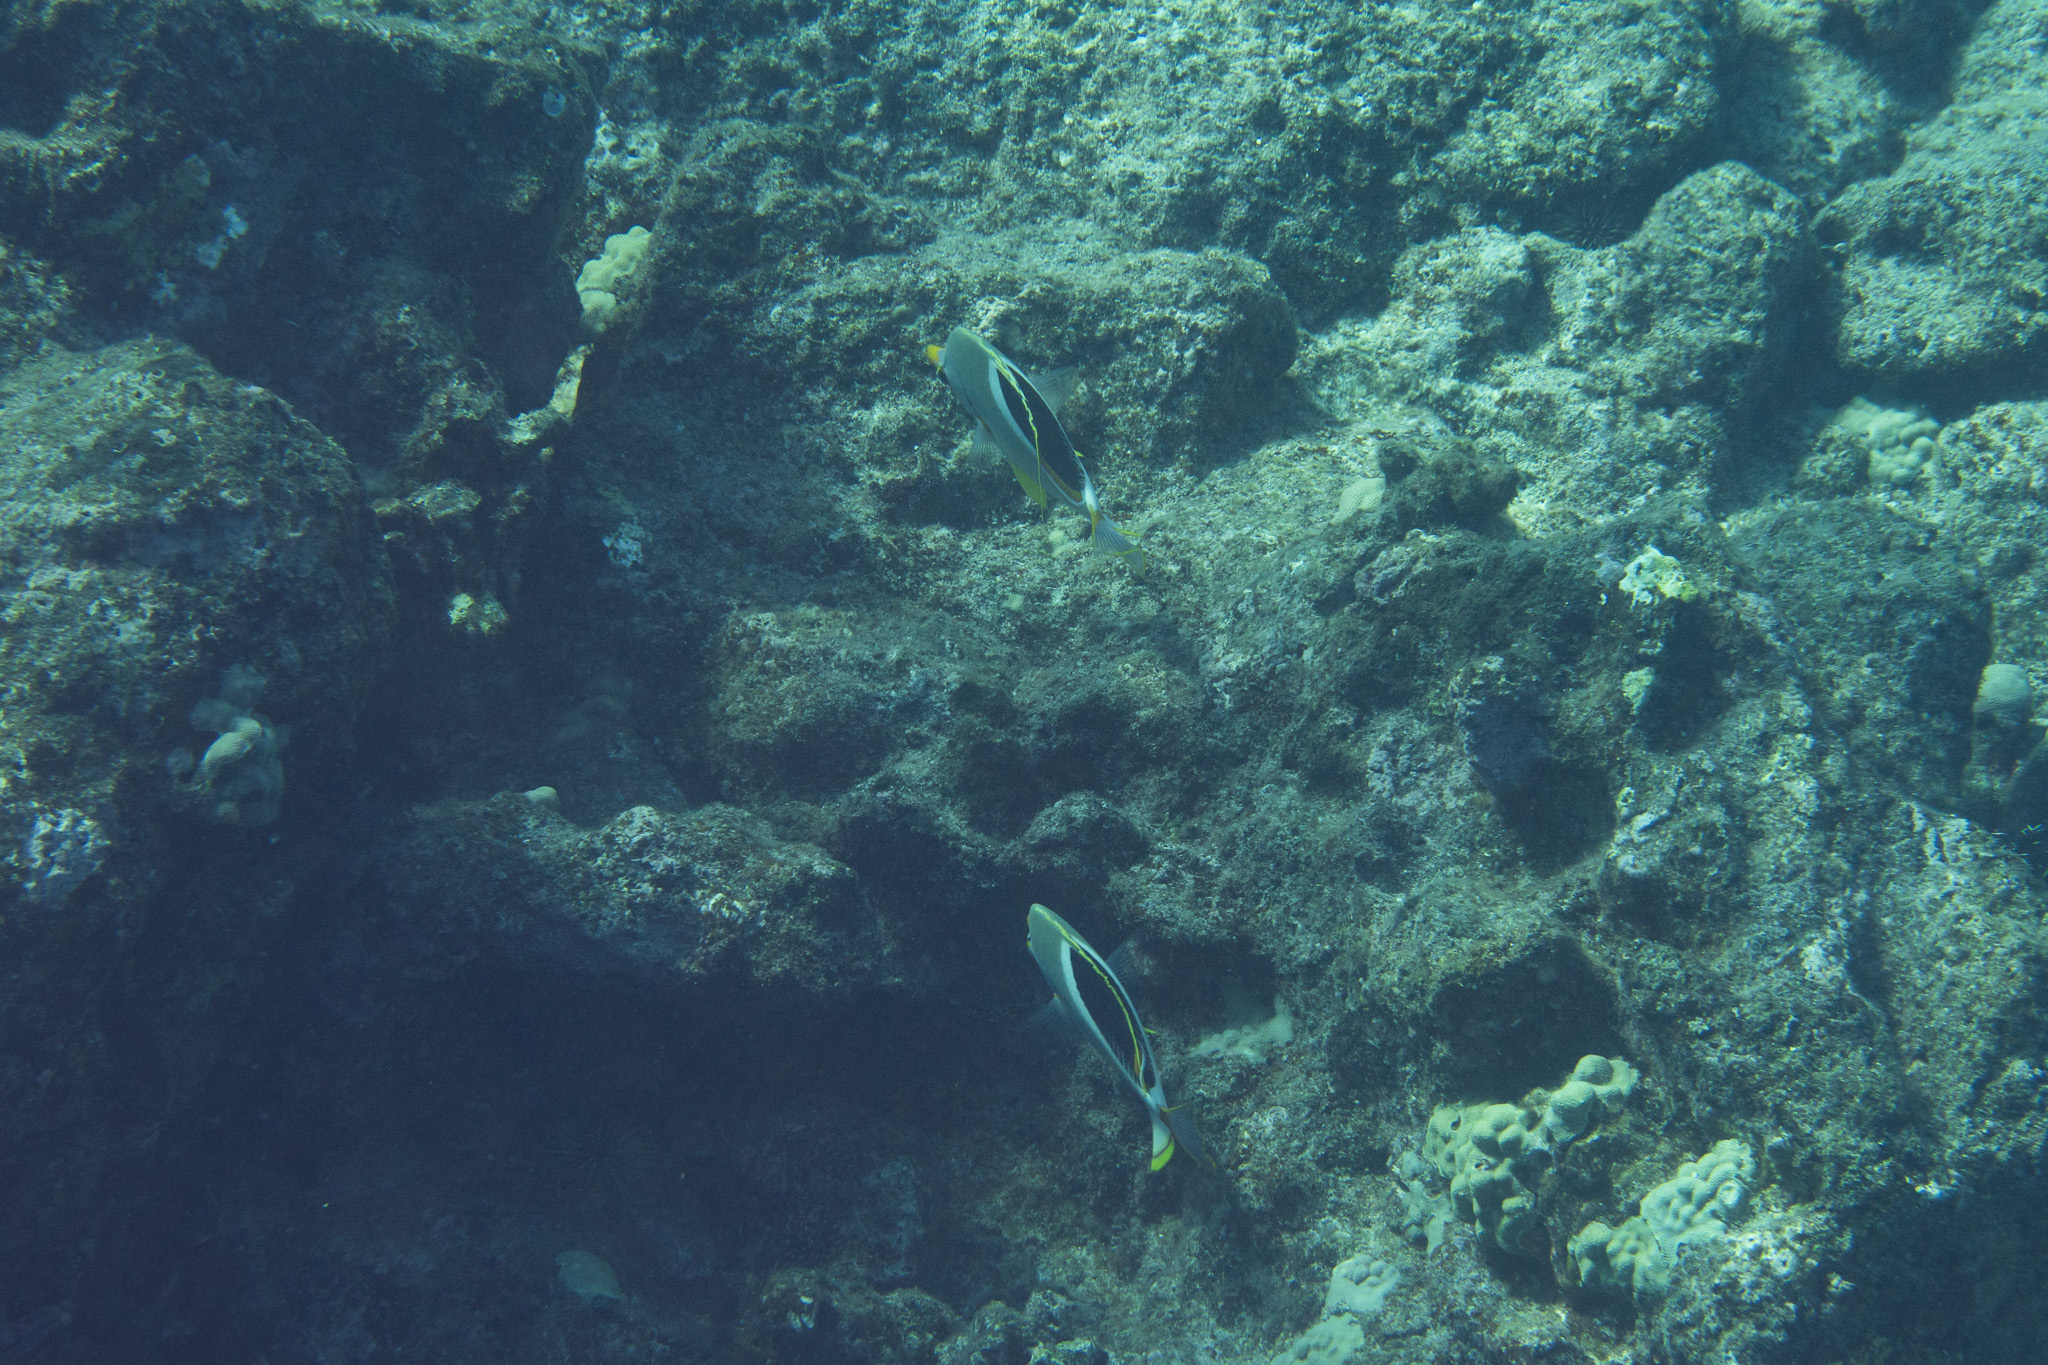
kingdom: Animalia
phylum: Chordata
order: Perciformes
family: Chaetodontidae
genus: Chaetodon
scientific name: Chaetodon ephippium
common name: Saddled butterflyfish
